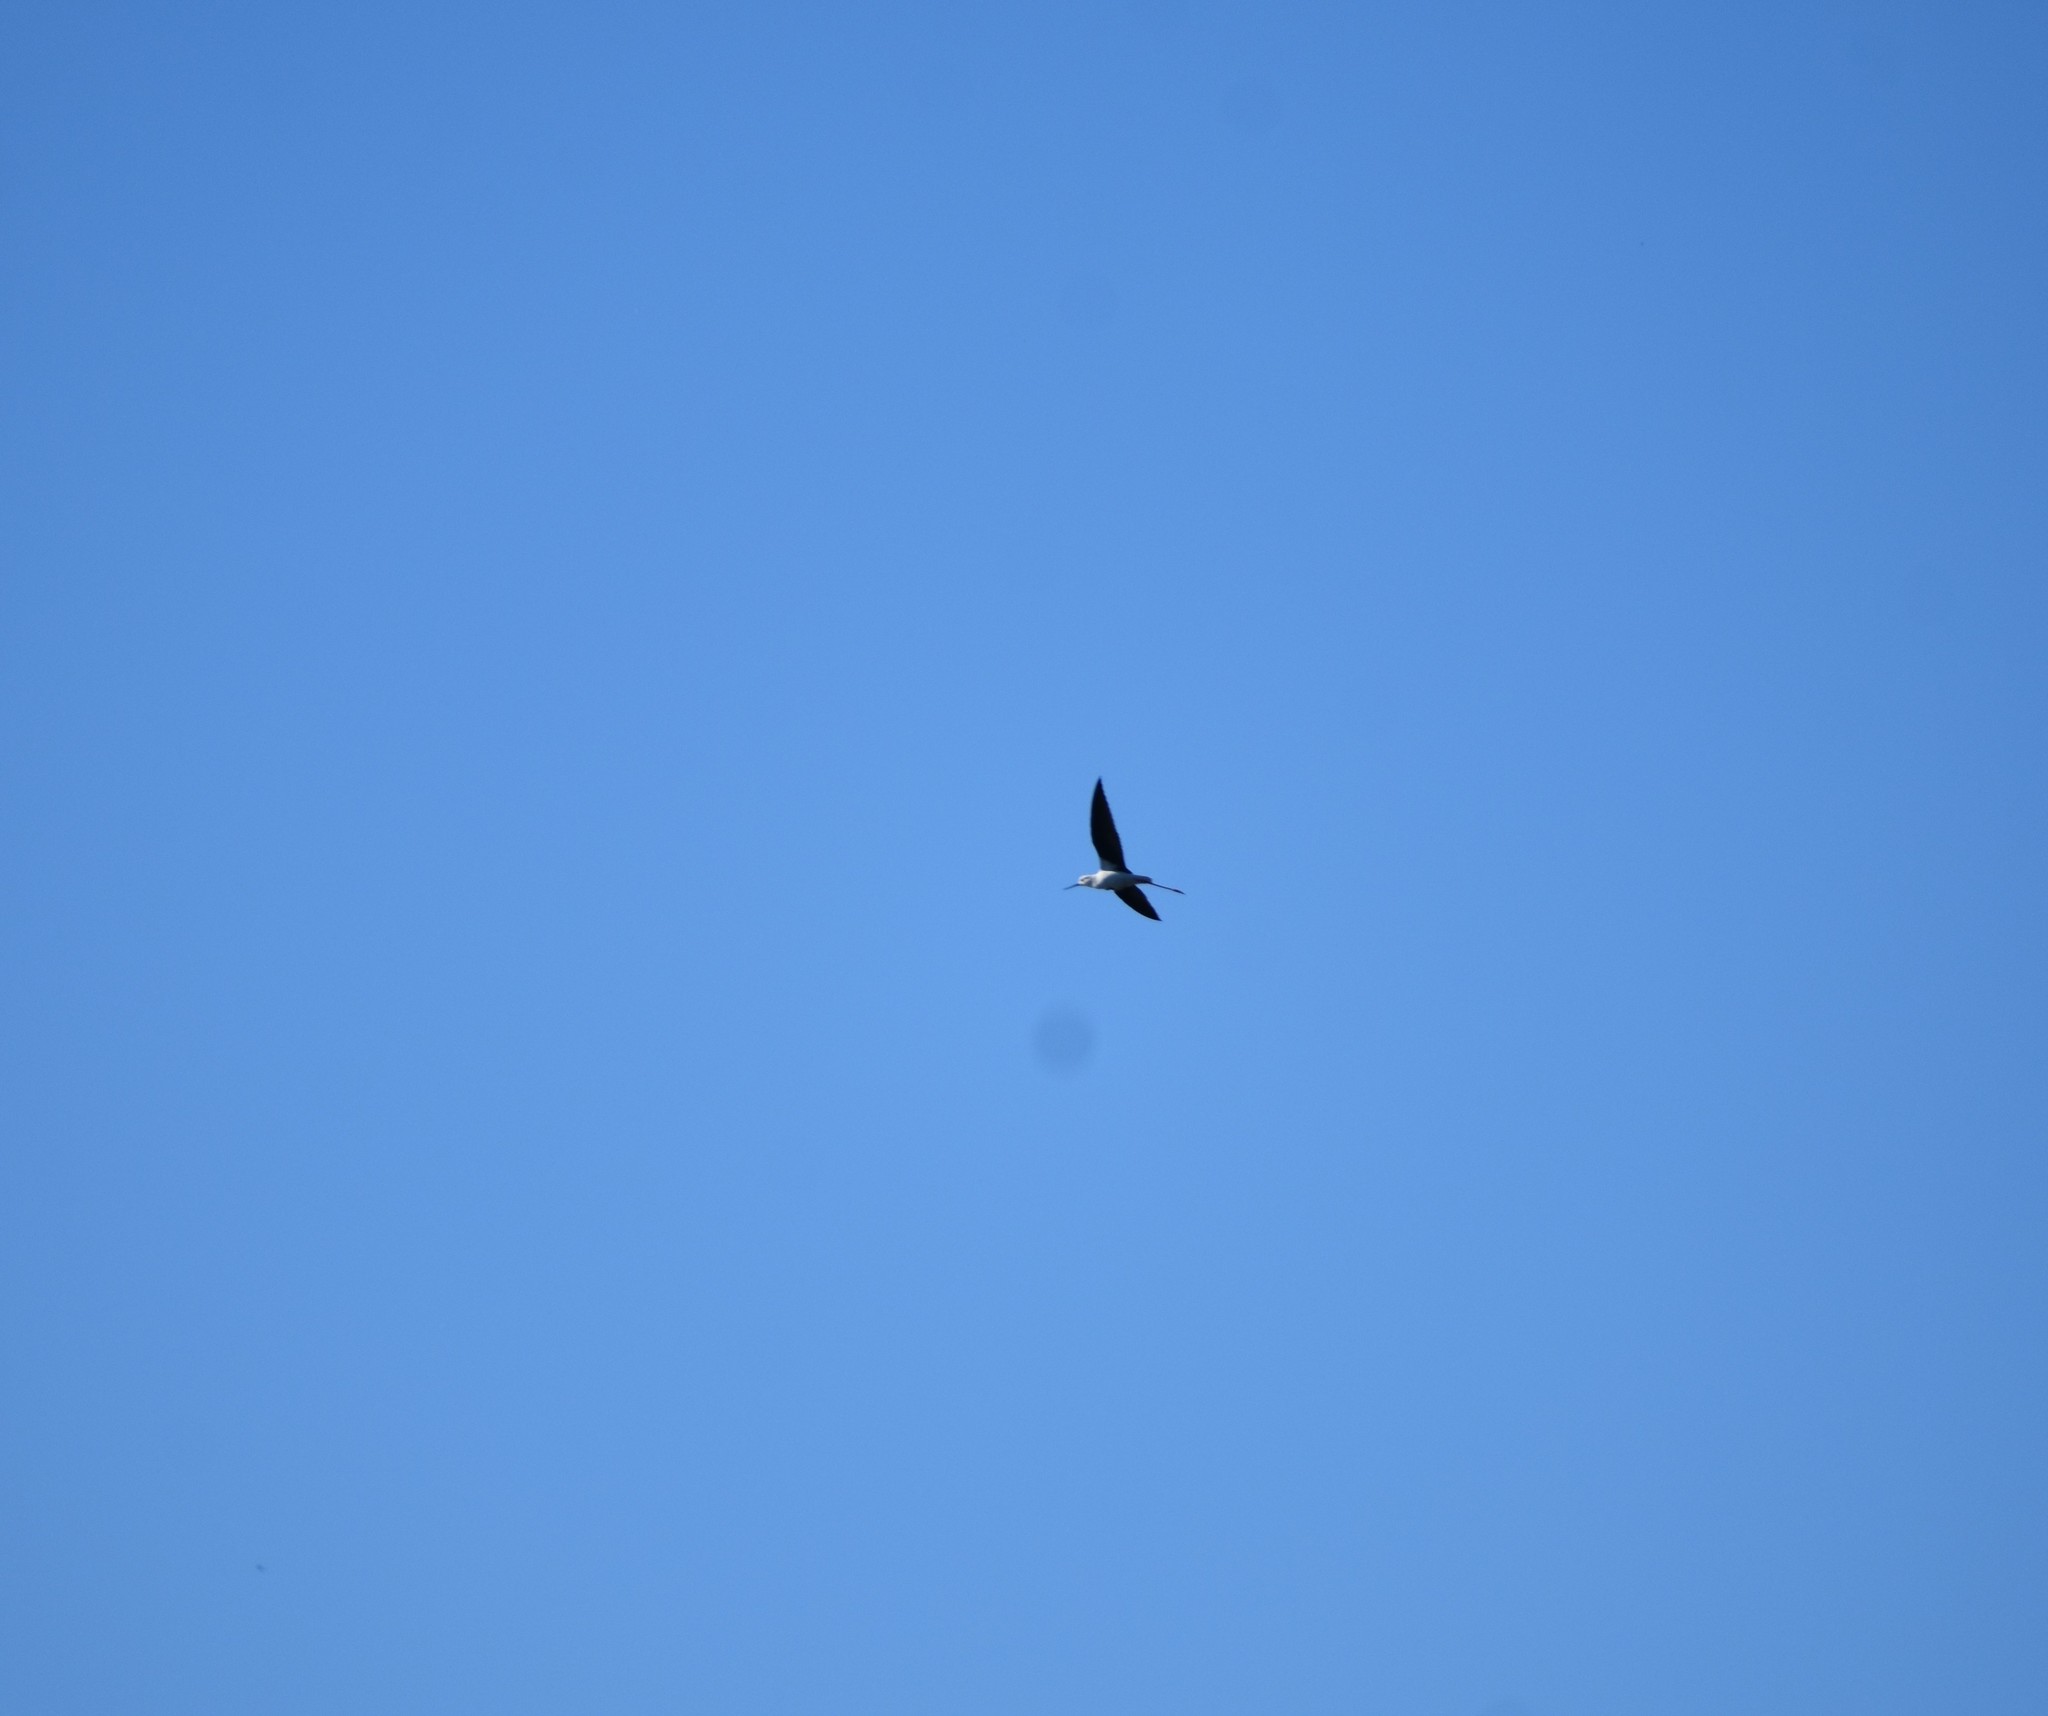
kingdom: Animalia
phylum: Chordata
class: Aves
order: Charadriiformes
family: Recurvirostridae
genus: Himantopus
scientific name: Himantopus himantopus
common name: Black-winged stilt
